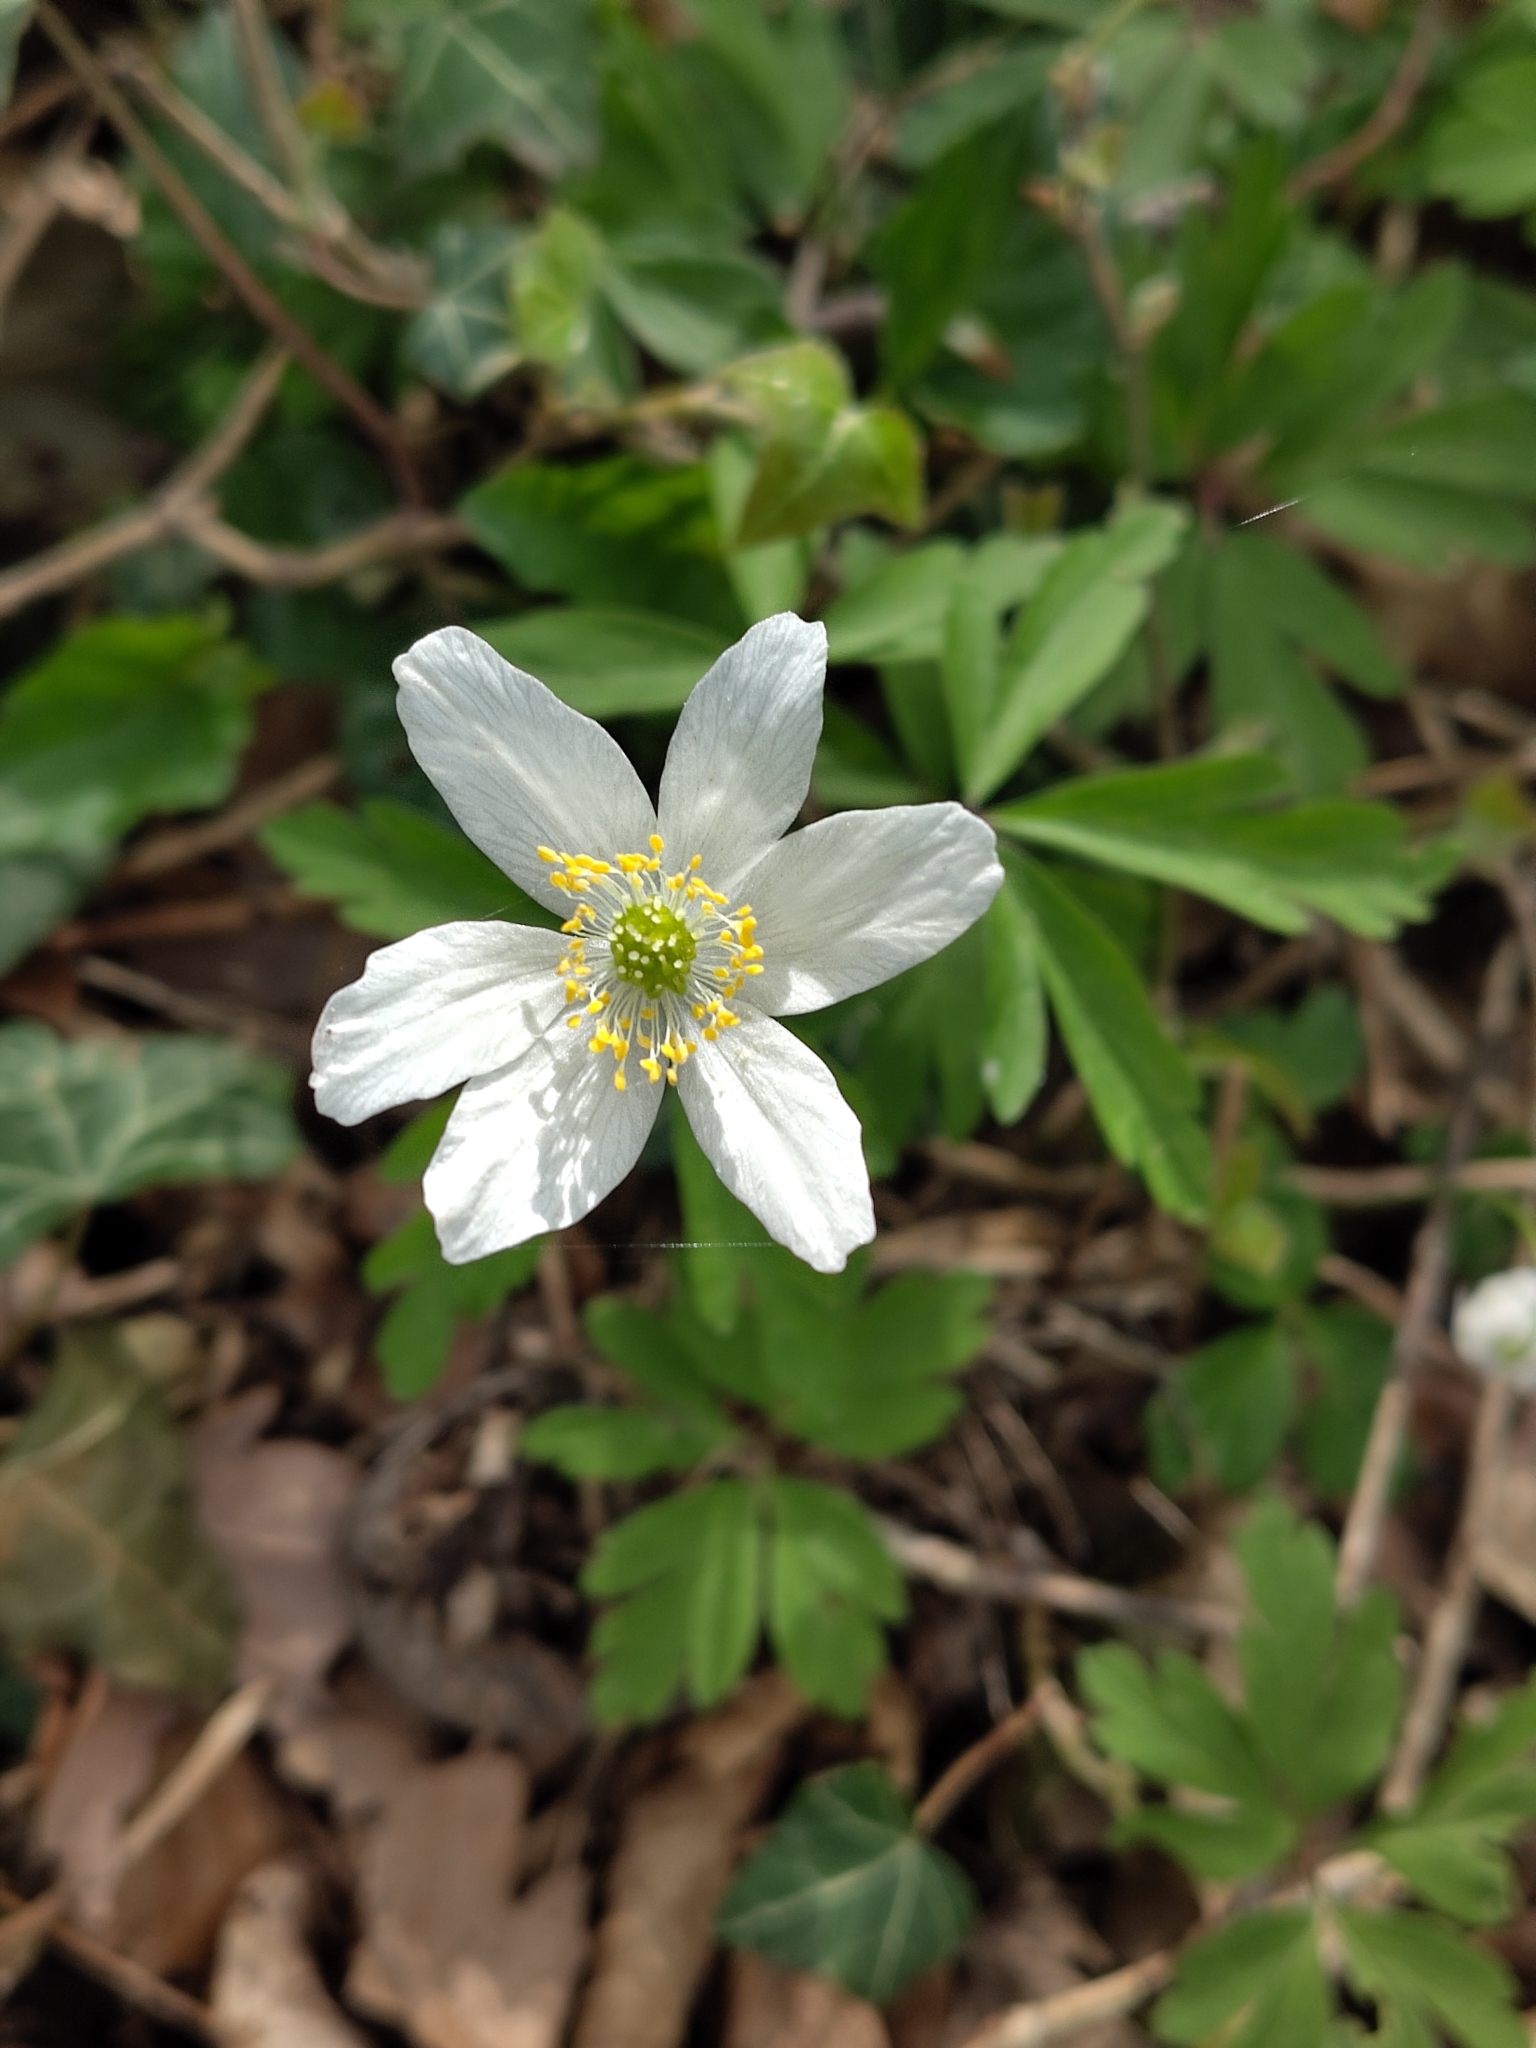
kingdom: Plantae
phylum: Tracheophyta
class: Magnoliopsida
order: Ranunculales
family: Ranunculaceae
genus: Anemone
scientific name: Anemone nemorosa
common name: Wood anemone
